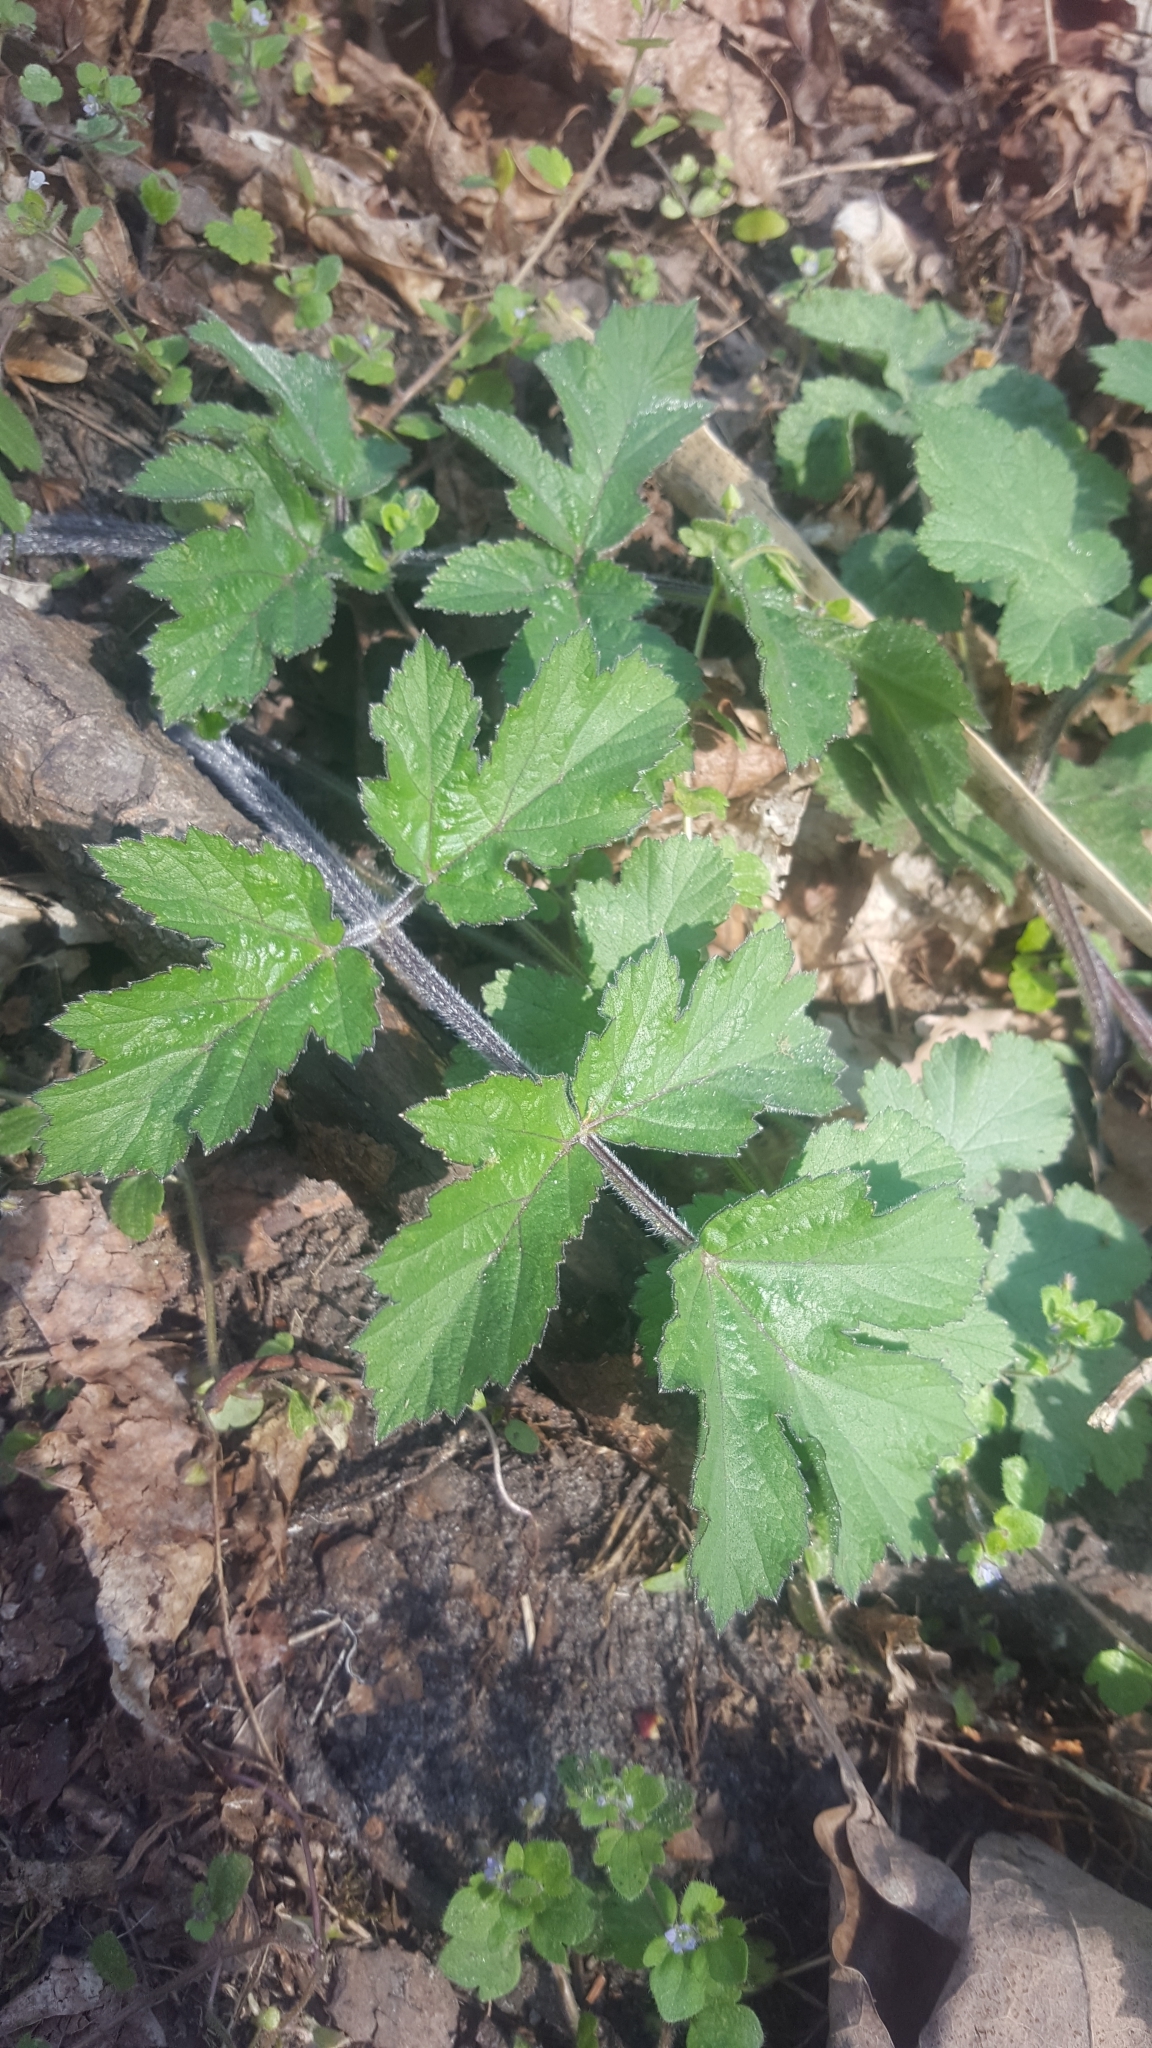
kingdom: Plantae
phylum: Tracheophyta
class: Magnoliopsida
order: Apiales
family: Apiaceae
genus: Heracleum
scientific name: Heracleum sphondylium
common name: Hogweed
